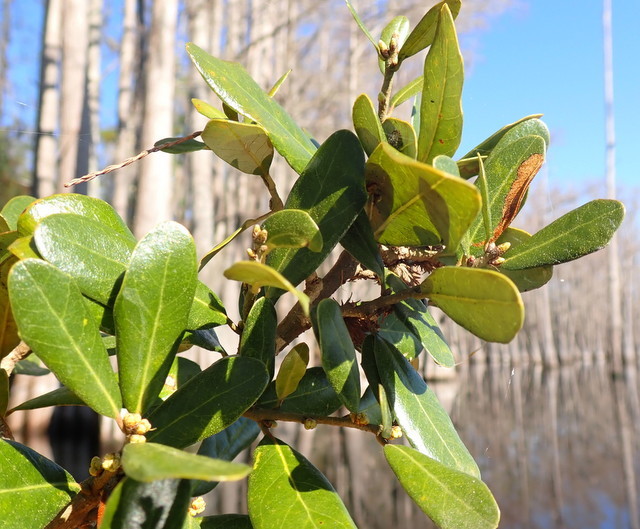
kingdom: Plantae
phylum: Tracheophyta
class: Magnoliopsida
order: Fagales
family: Fagaceae
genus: Quercus
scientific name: Quercus virginiana
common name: Southern live oak
